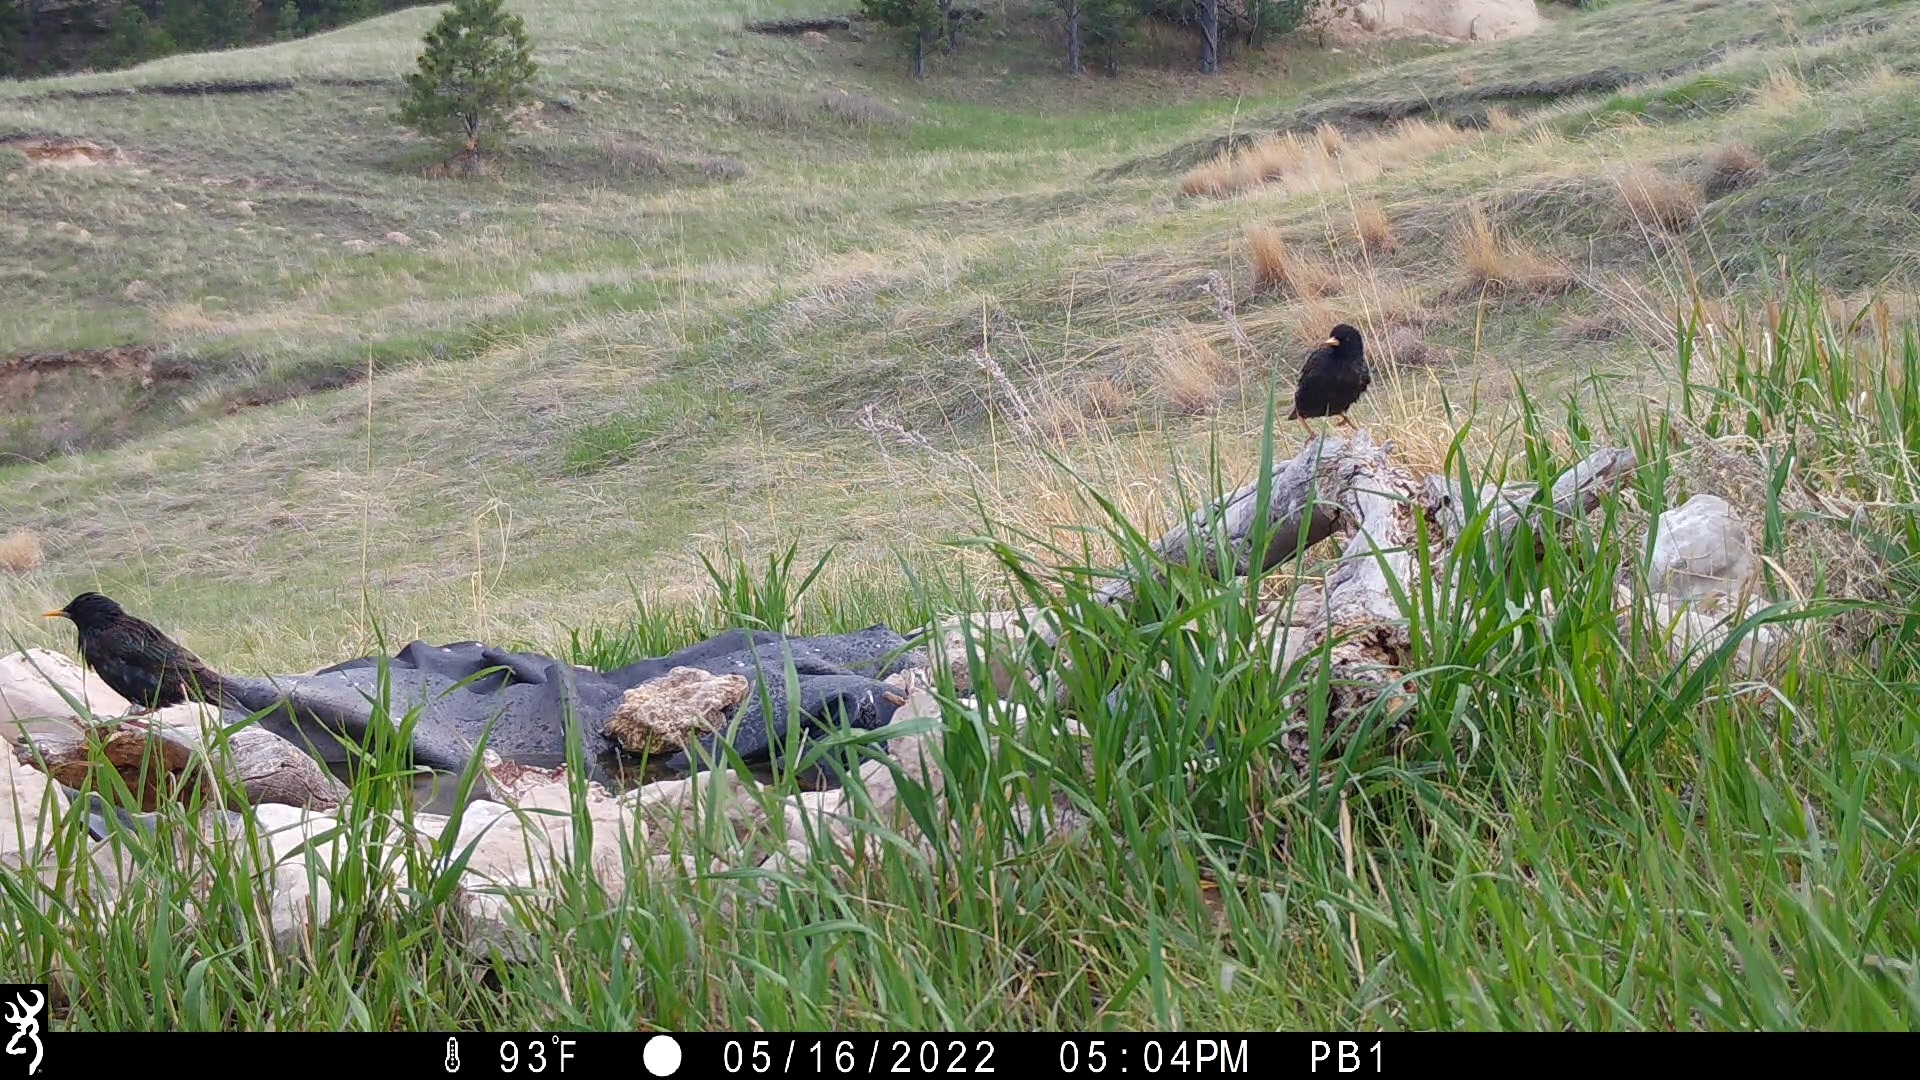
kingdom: Animalia
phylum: Chordata
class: Aves
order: Passeriformes
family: Sturnidae
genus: Sturnus
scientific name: Sturnus vulgaris
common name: Common starling
